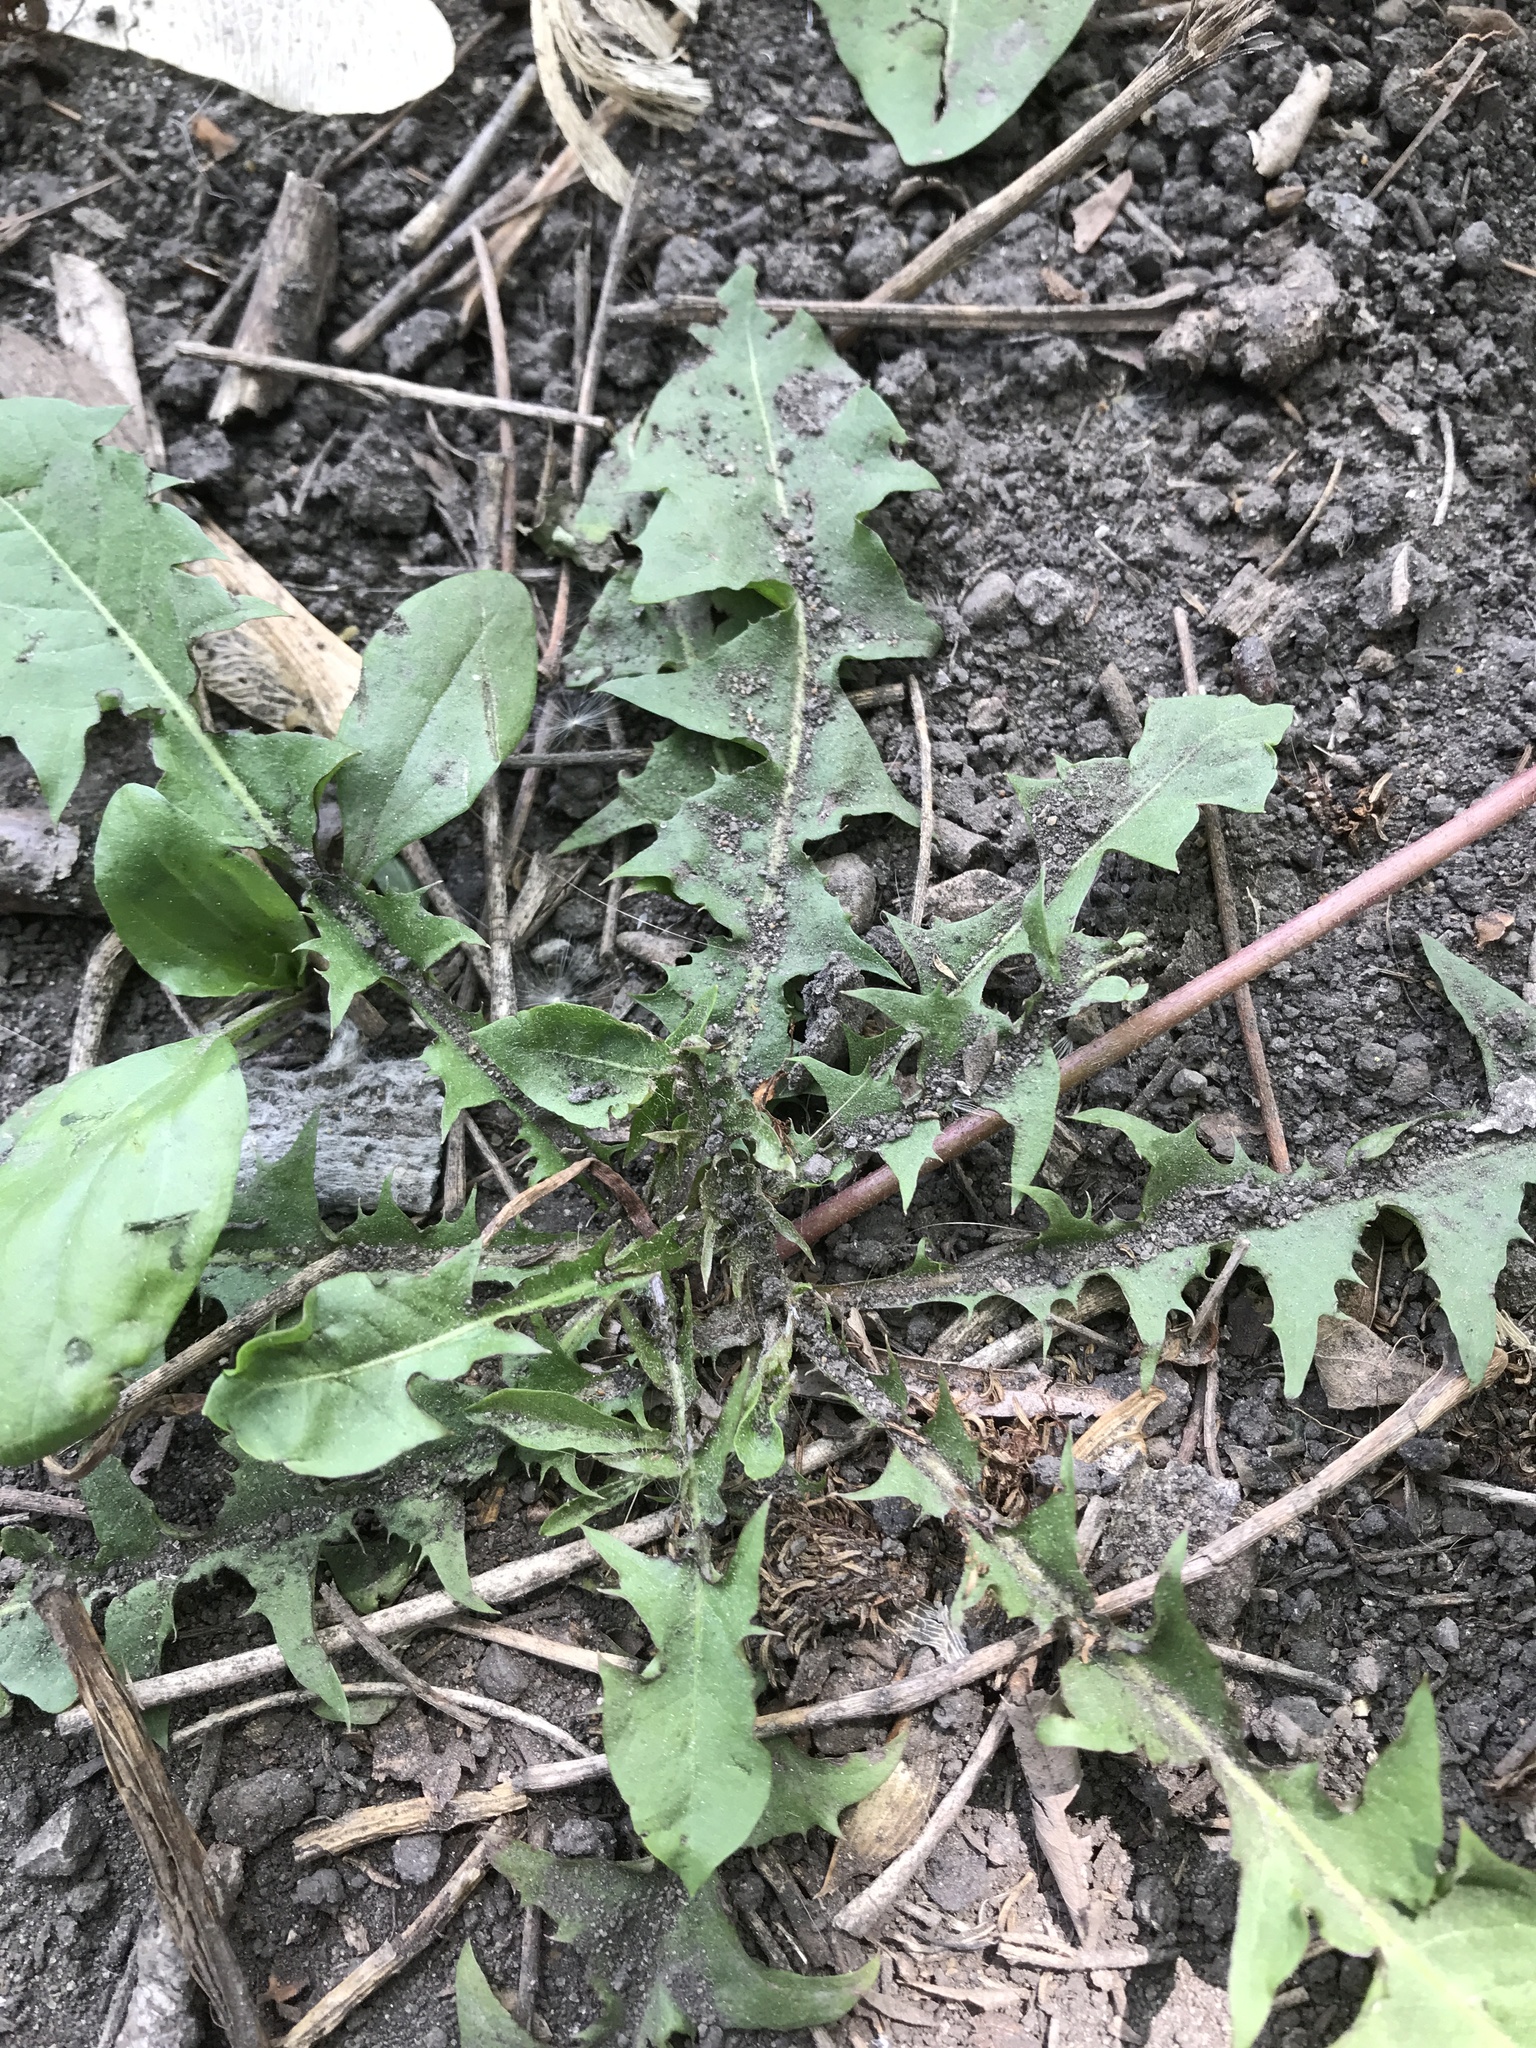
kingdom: Plantae
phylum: Tracheophyta
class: Magnoliopsida
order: Asterales
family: Asteraceae
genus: Taraxacum
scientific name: Taraxacum officinale
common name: Common dandelion
